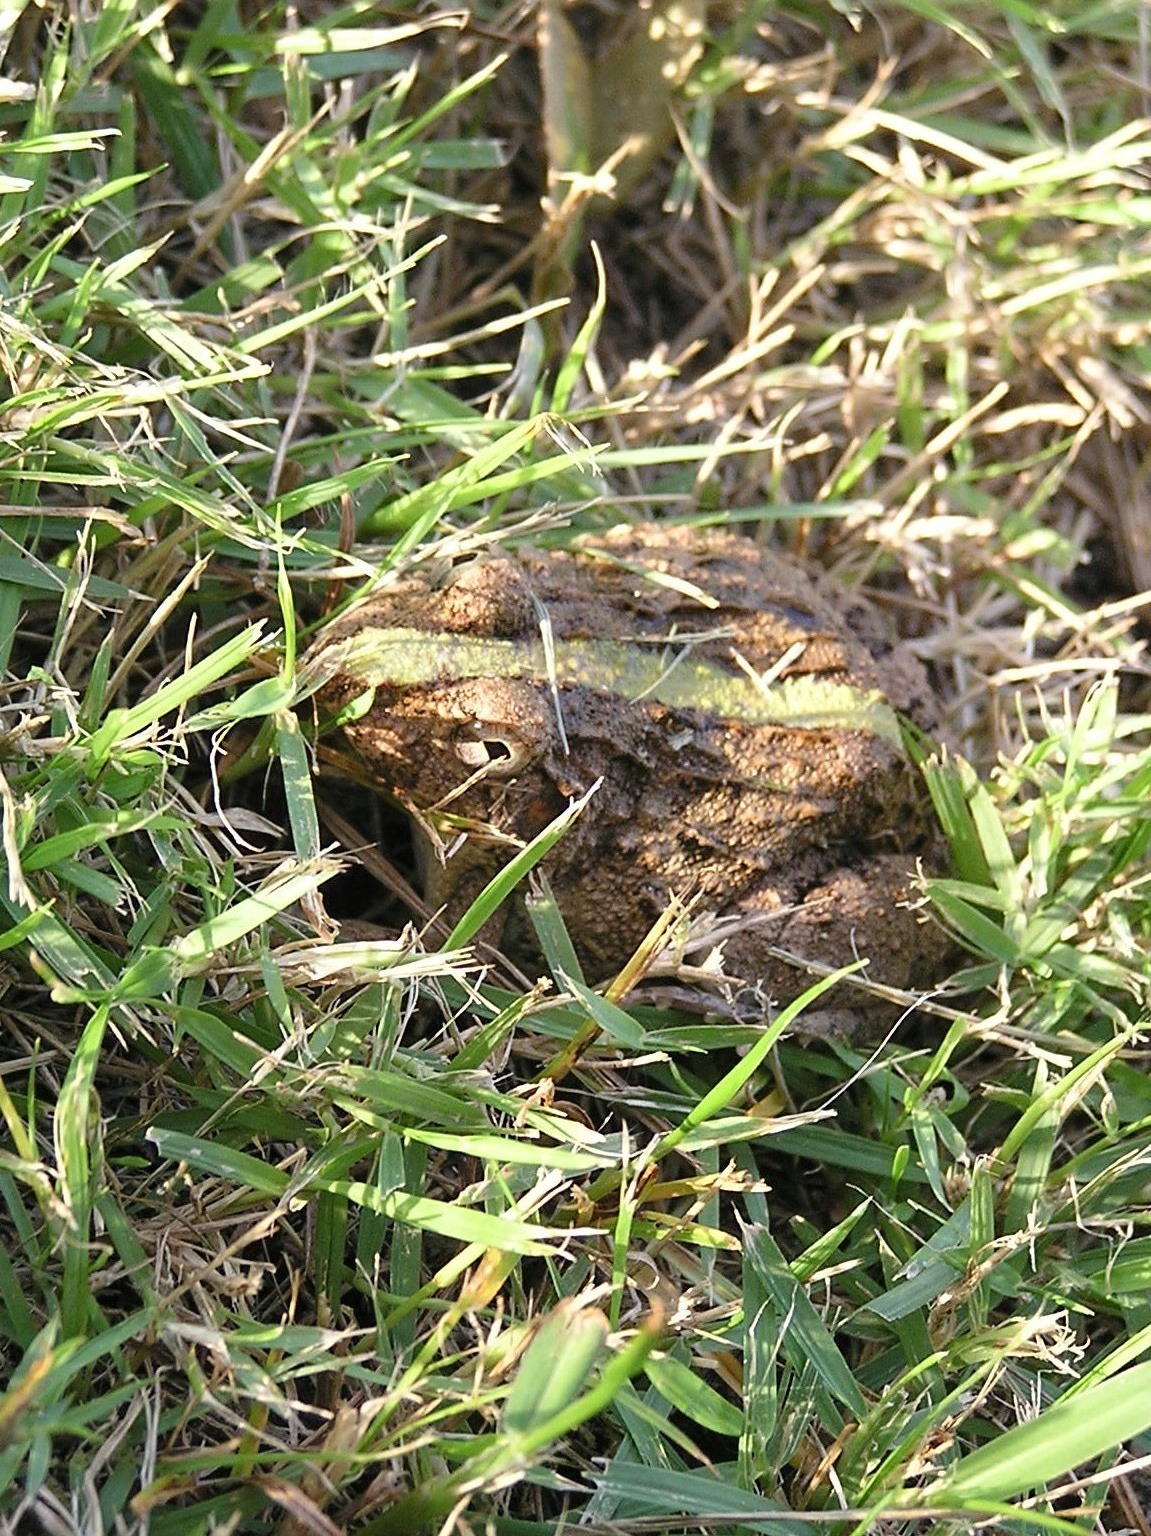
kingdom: Animalia
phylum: Chordata
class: Amphibia
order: Anura
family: Dicroglossidae
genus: Fejervarya
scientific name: Fejervarya limnocharis
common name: Asian grass frog/common pond frog/field frog/grass frog/indian rice frog
